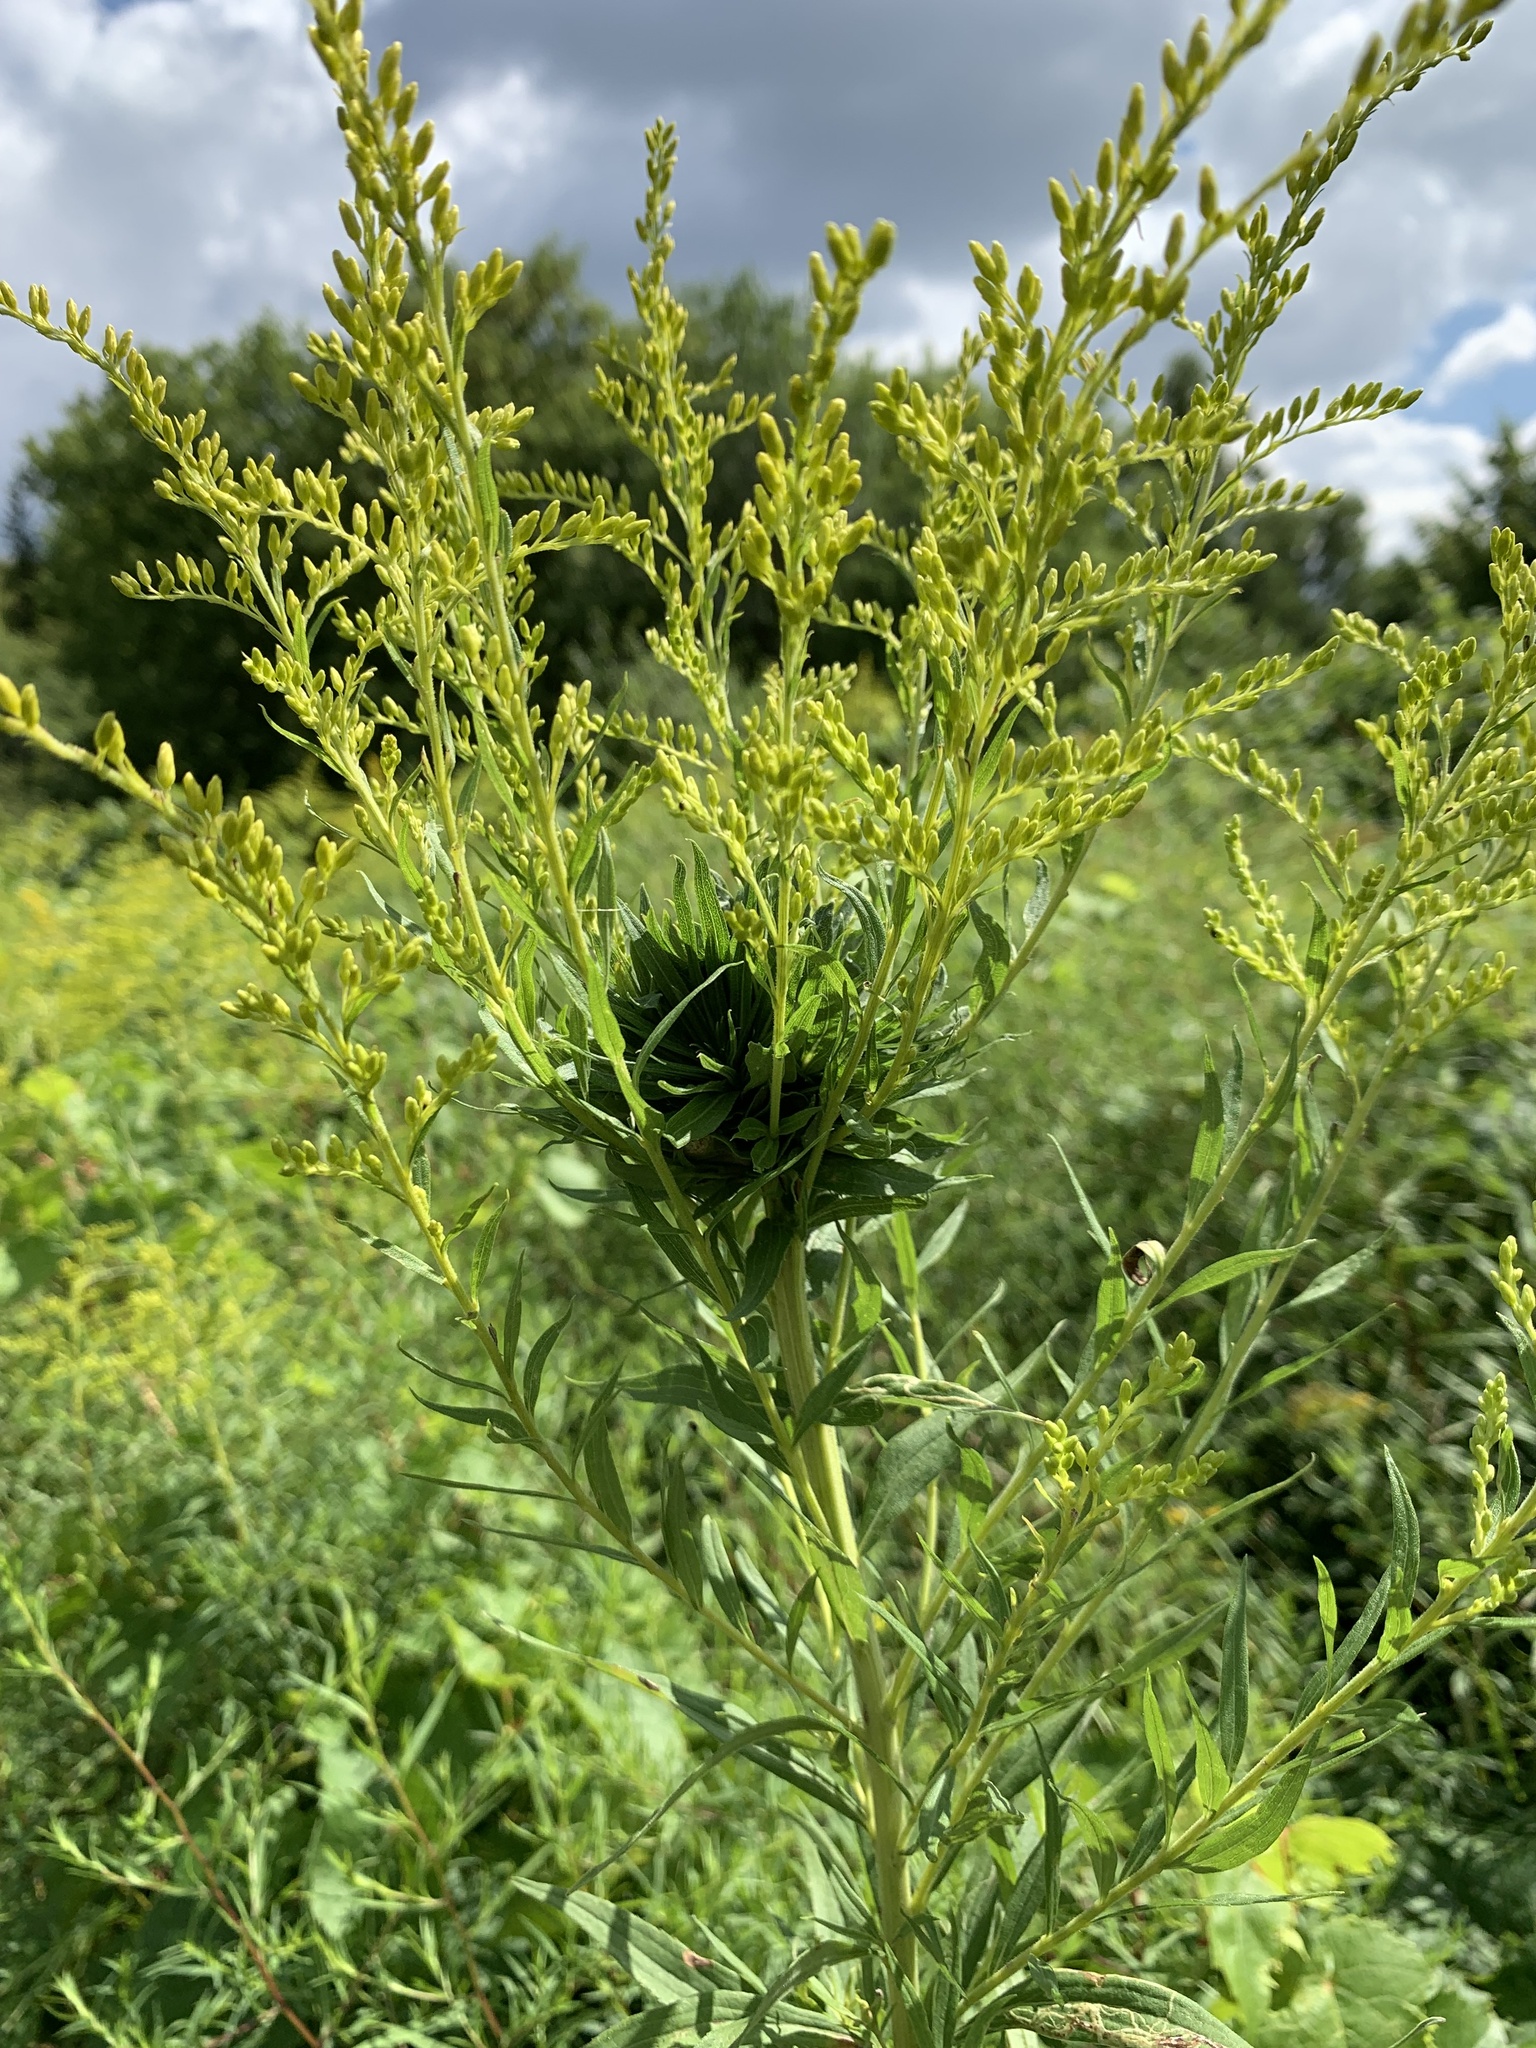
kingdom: Animalia
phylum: Arthropoda
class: Insecta
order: Diptera
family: Cecidomyiidae
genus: Rhopalomyia
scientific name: Rhopalomyia solidaginis
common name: Goldenrod bunch gall midge
